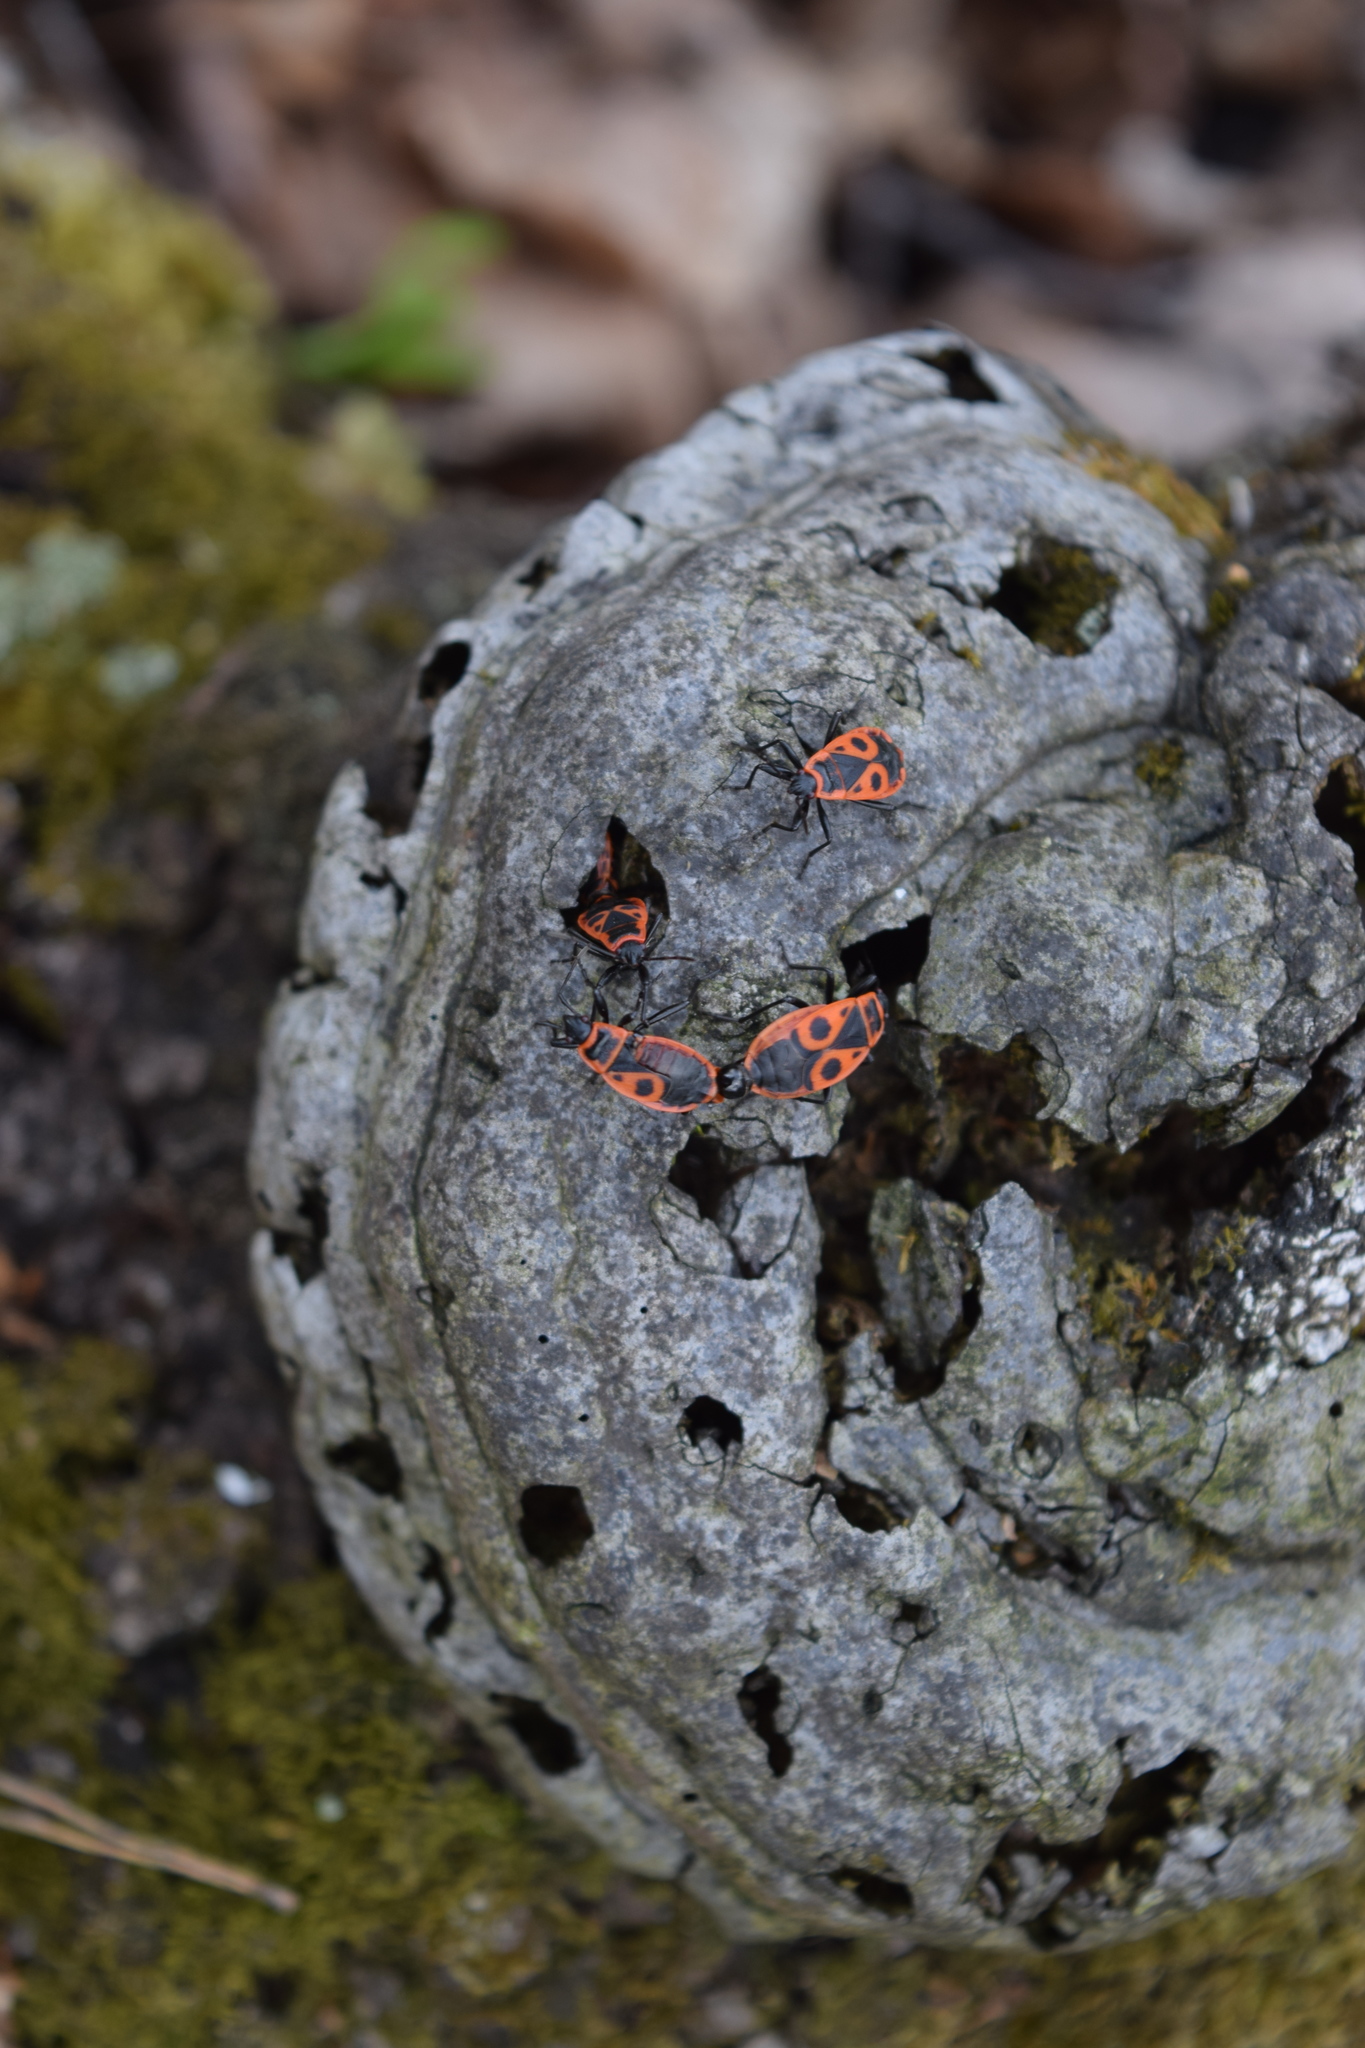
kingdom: Animalia
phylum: Arthropoda
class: Insecta
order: Hemiptera
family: Pyrrhocoridae
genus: Pyrrhocoris
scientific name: Pyrrhocoris apterus
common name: Firebug
